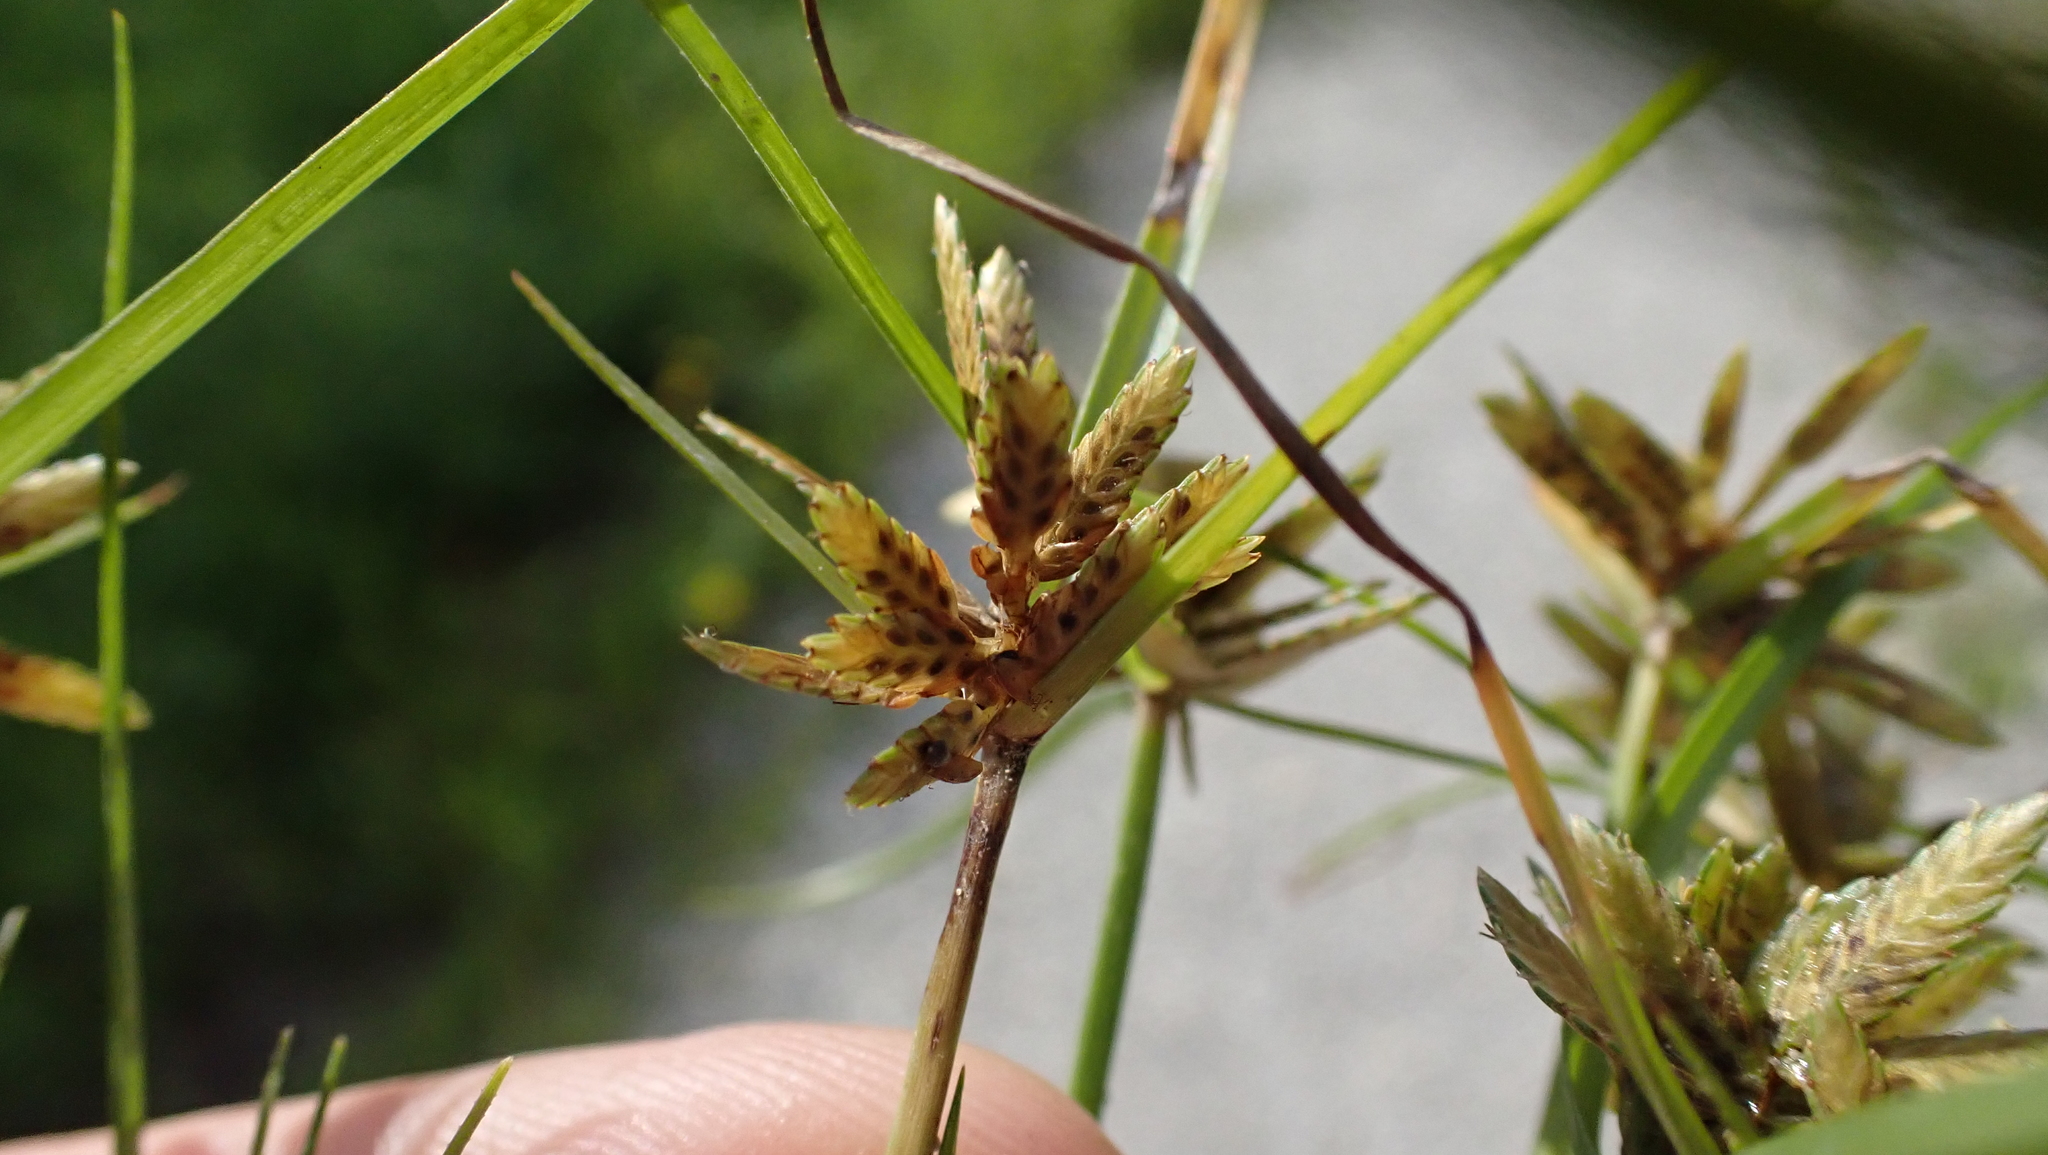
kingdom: Plantae
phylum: Tracheophyta
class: Liliopsida
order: Poales
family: Cyperaceae
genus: Cyperus
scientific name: Cyperus flavescens
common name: Yellow galingale
